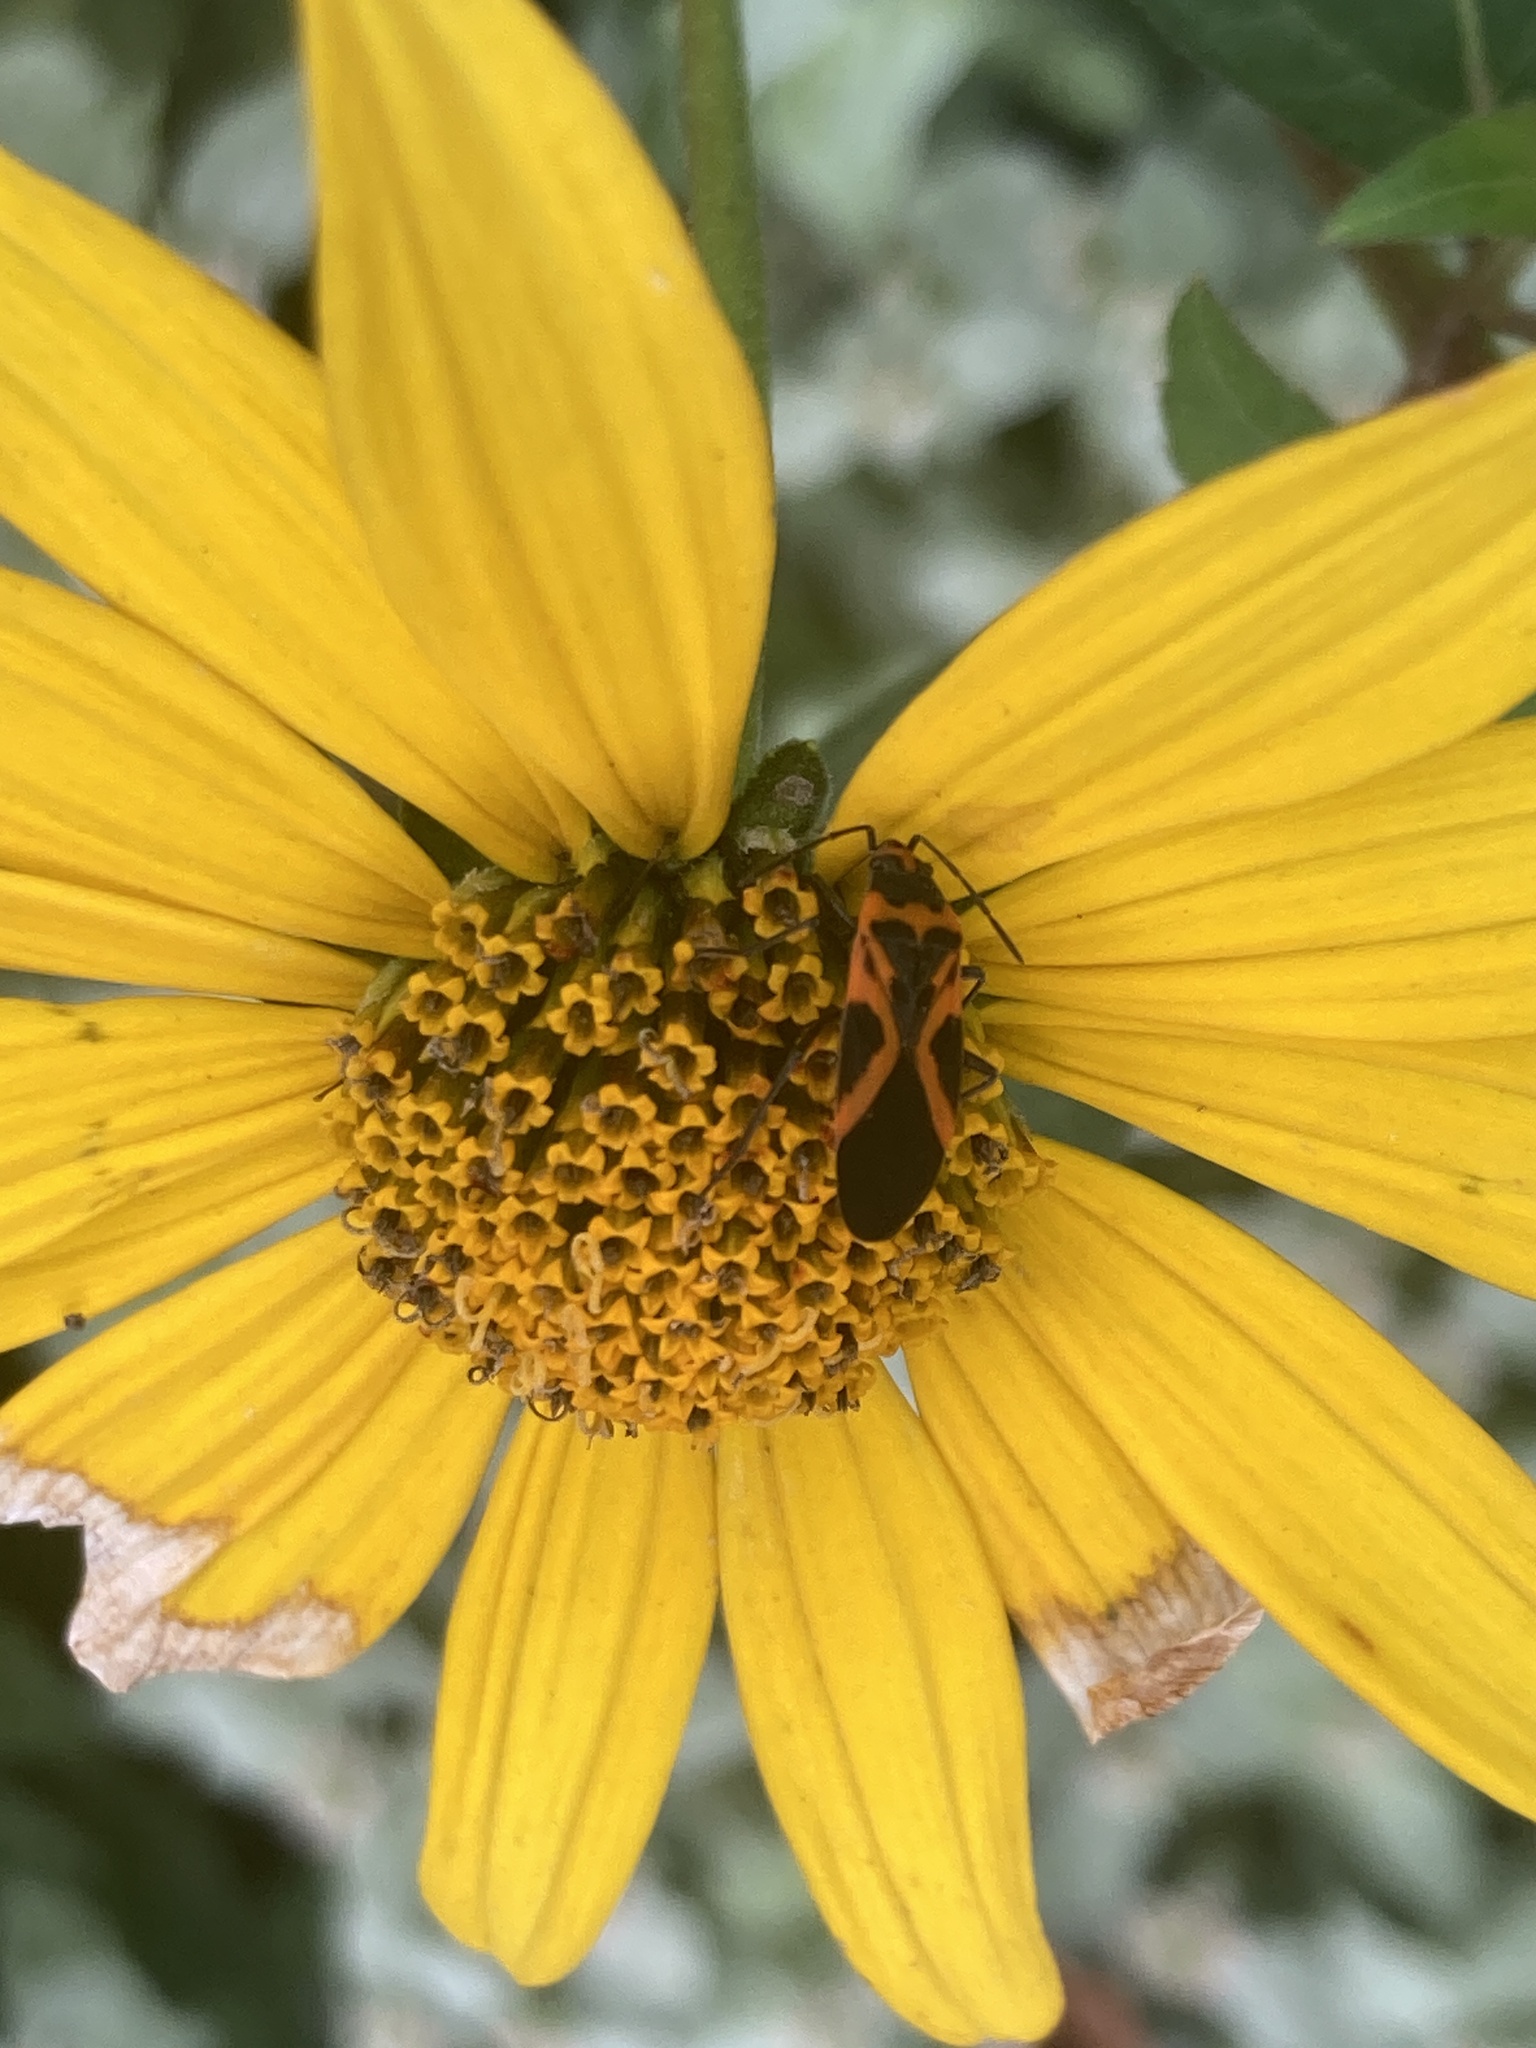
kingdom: Animalia
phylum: Arthropoda
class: Insecta
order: Hemiptera
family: Lygaeidae
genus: Lygaeus
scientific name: Lygaeus turcicus
